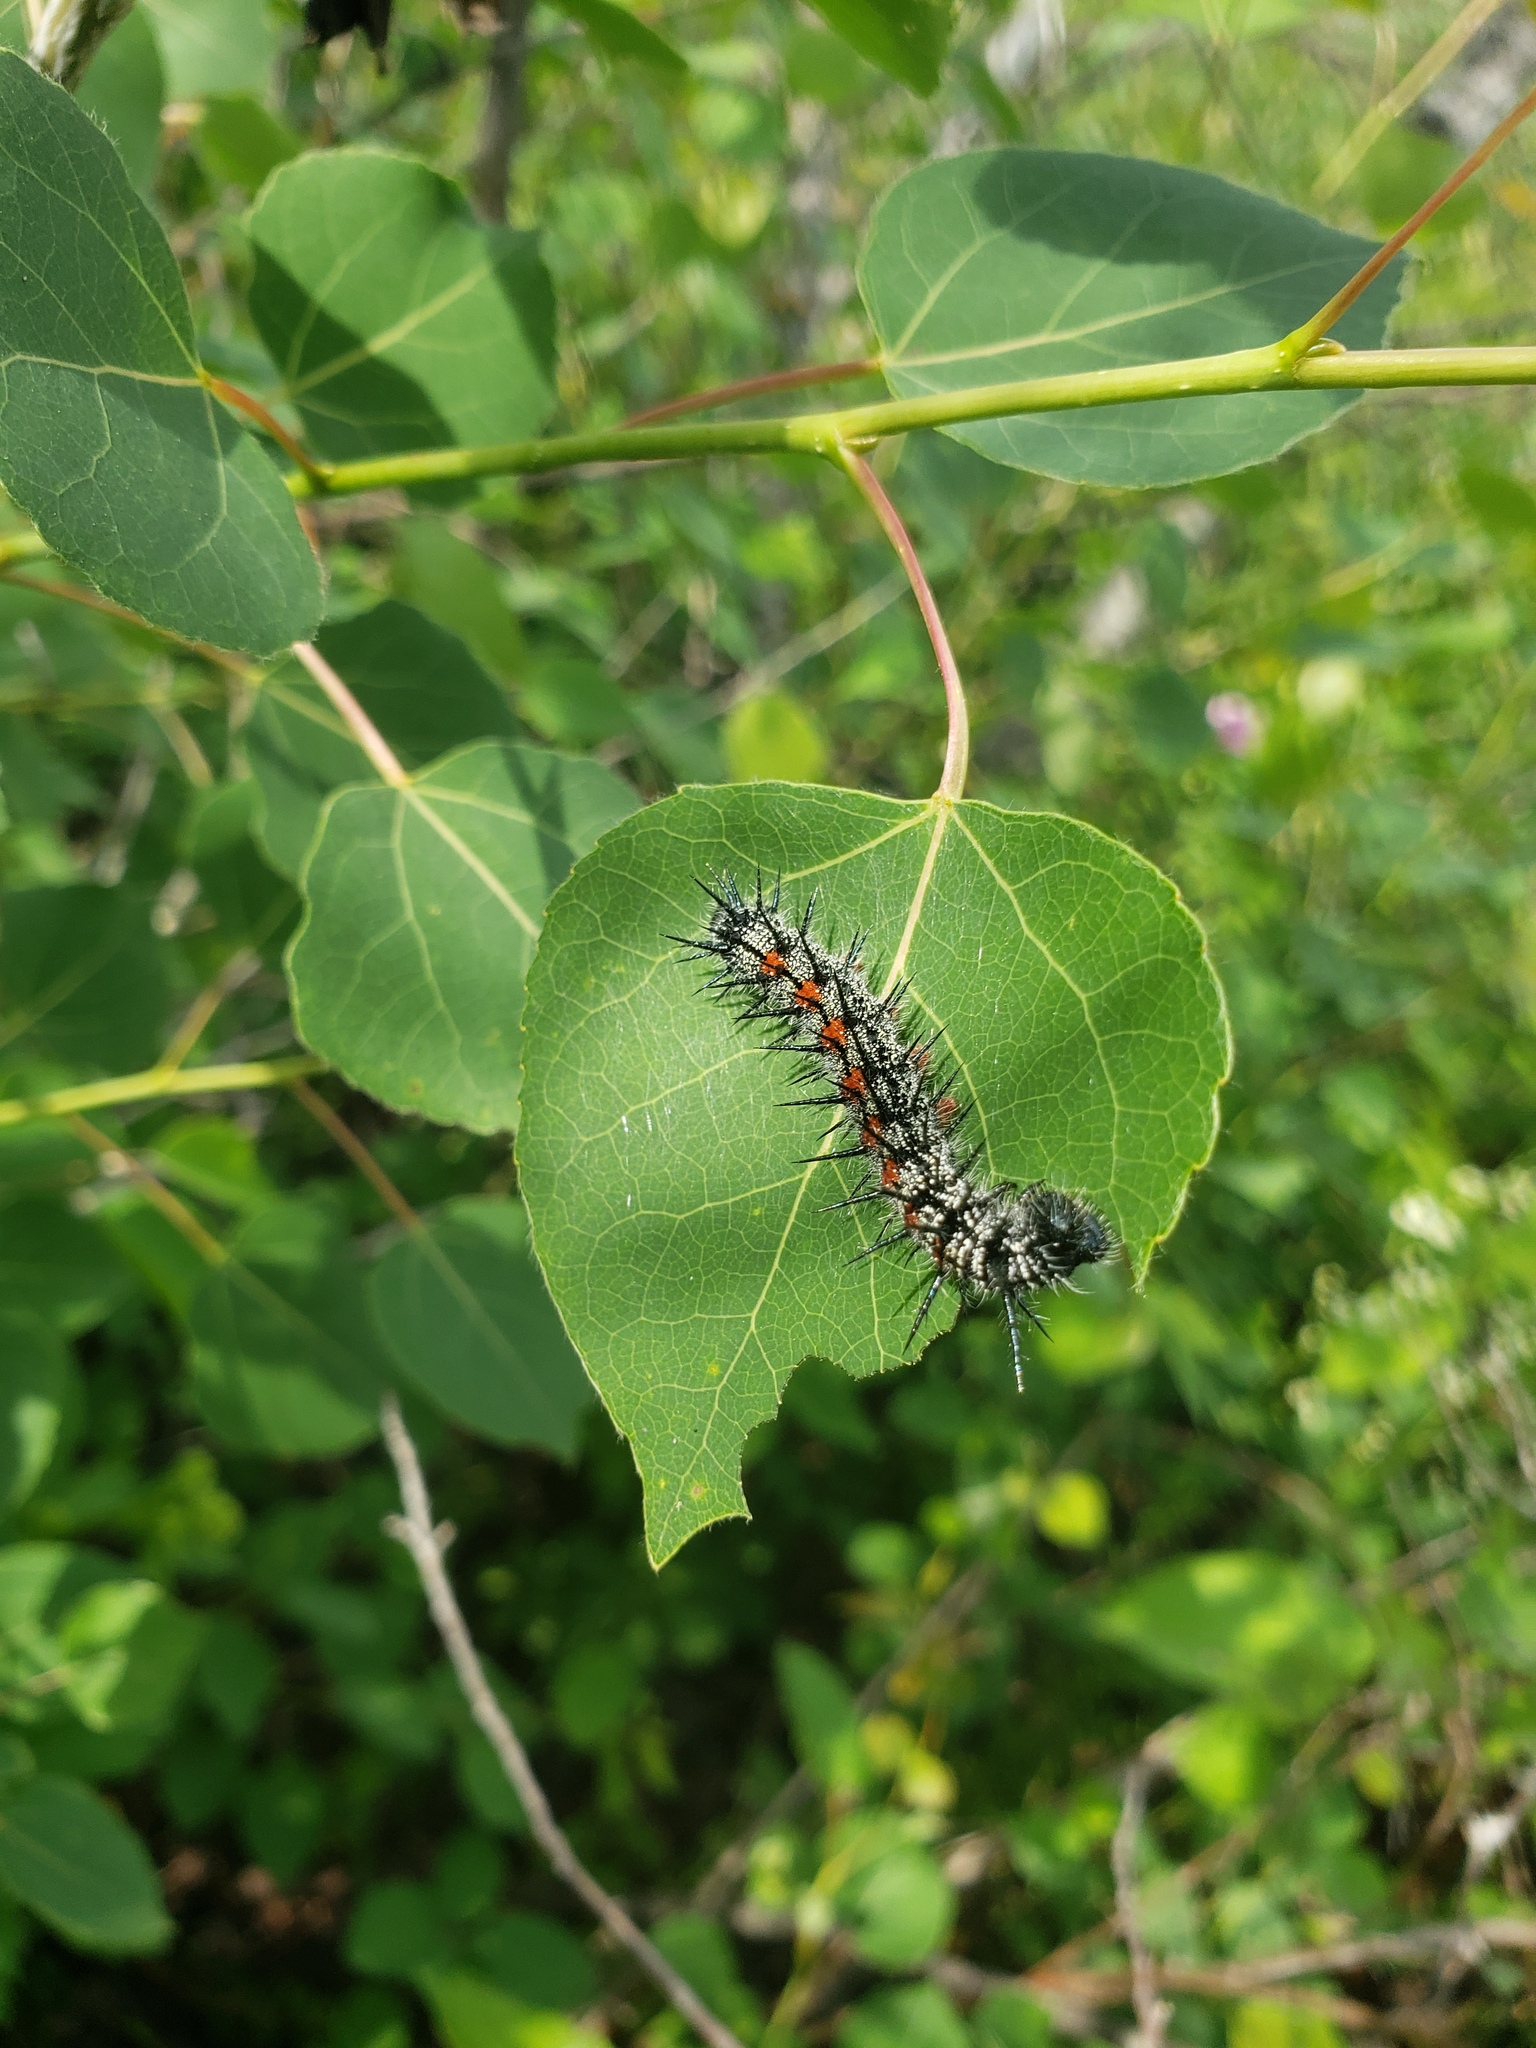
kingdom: Animalia
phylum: Arthropoda
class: Insecta
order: Lepidoptera
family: Nymphalidae
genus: Nymphalis
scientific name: Nymphalis antiopa
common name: Camberwell beauty
